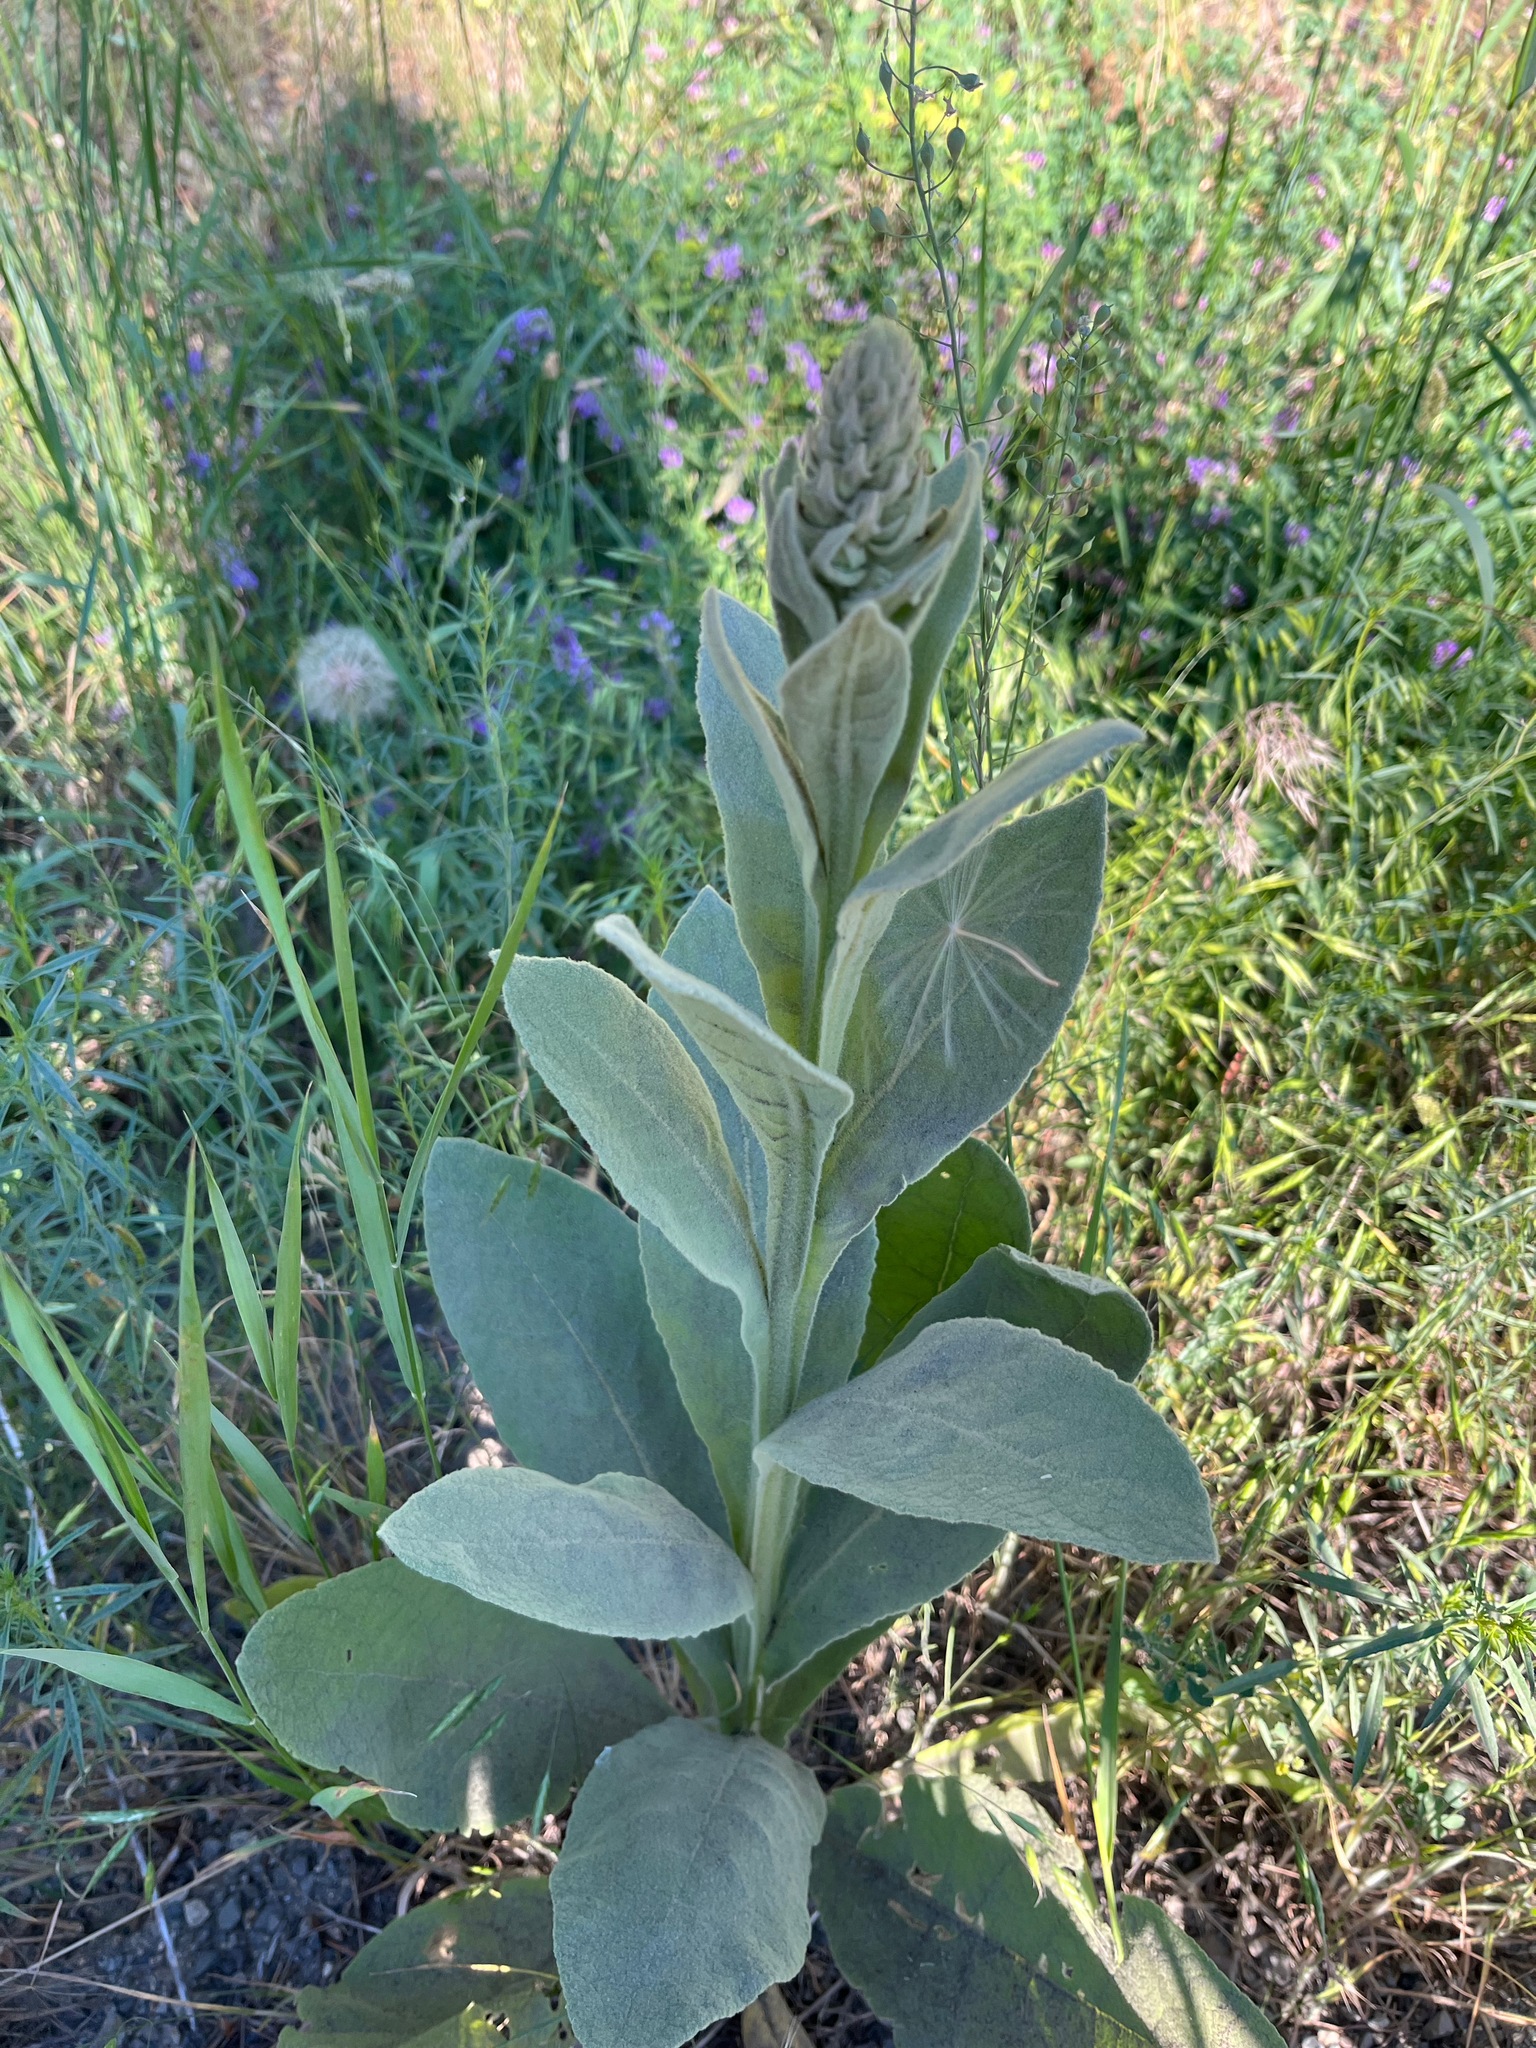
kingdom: Plantae
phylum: Tracheophyta
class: Magnoliopsida
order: Lamiales
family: Scrophulariaceae
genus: Verbascum
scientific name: Verbascum thapsus
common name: Common mullein
